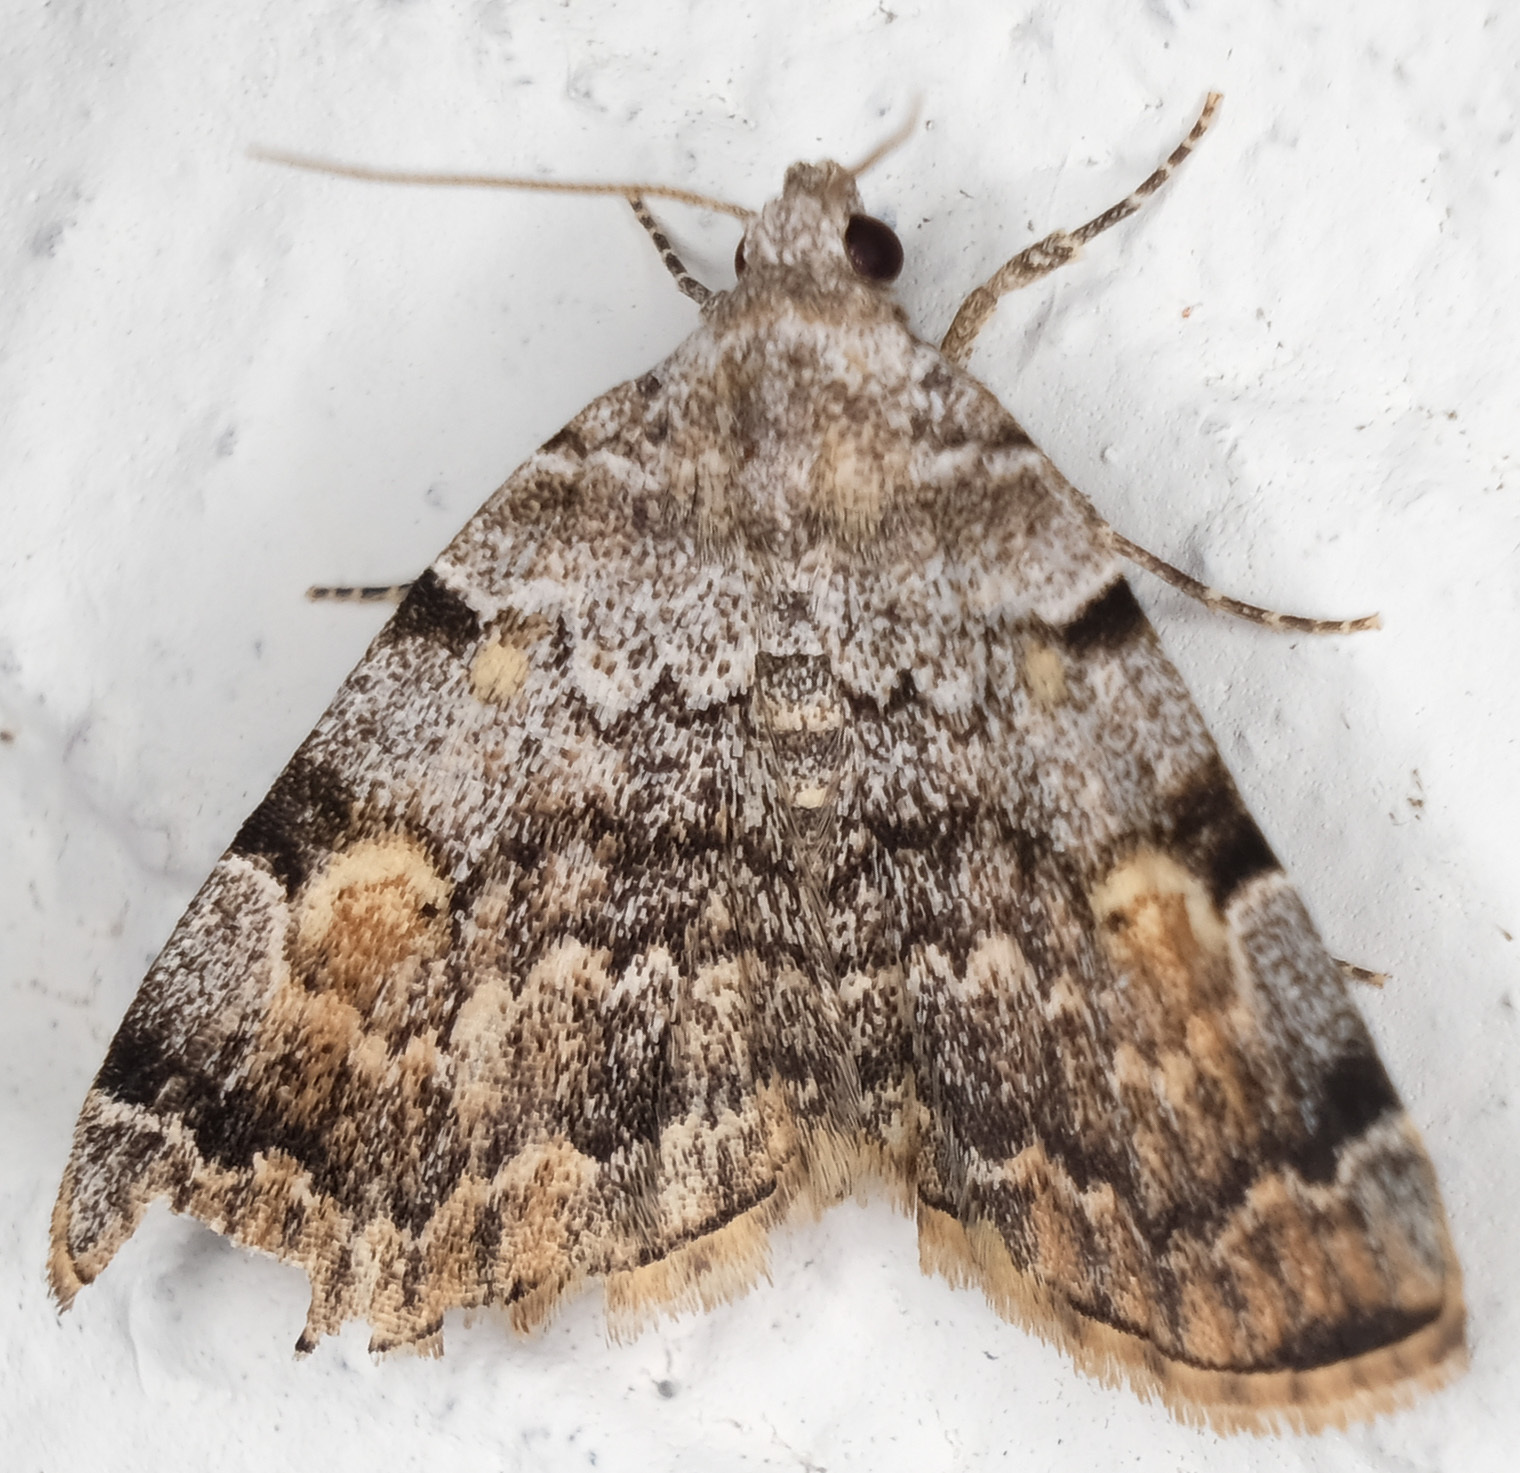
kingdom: Animalia
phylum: Arthropoda
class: Insecta
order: Lepidoptera
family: Erebidae
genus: Idia
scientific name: Idia americalis
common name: American idia moth
